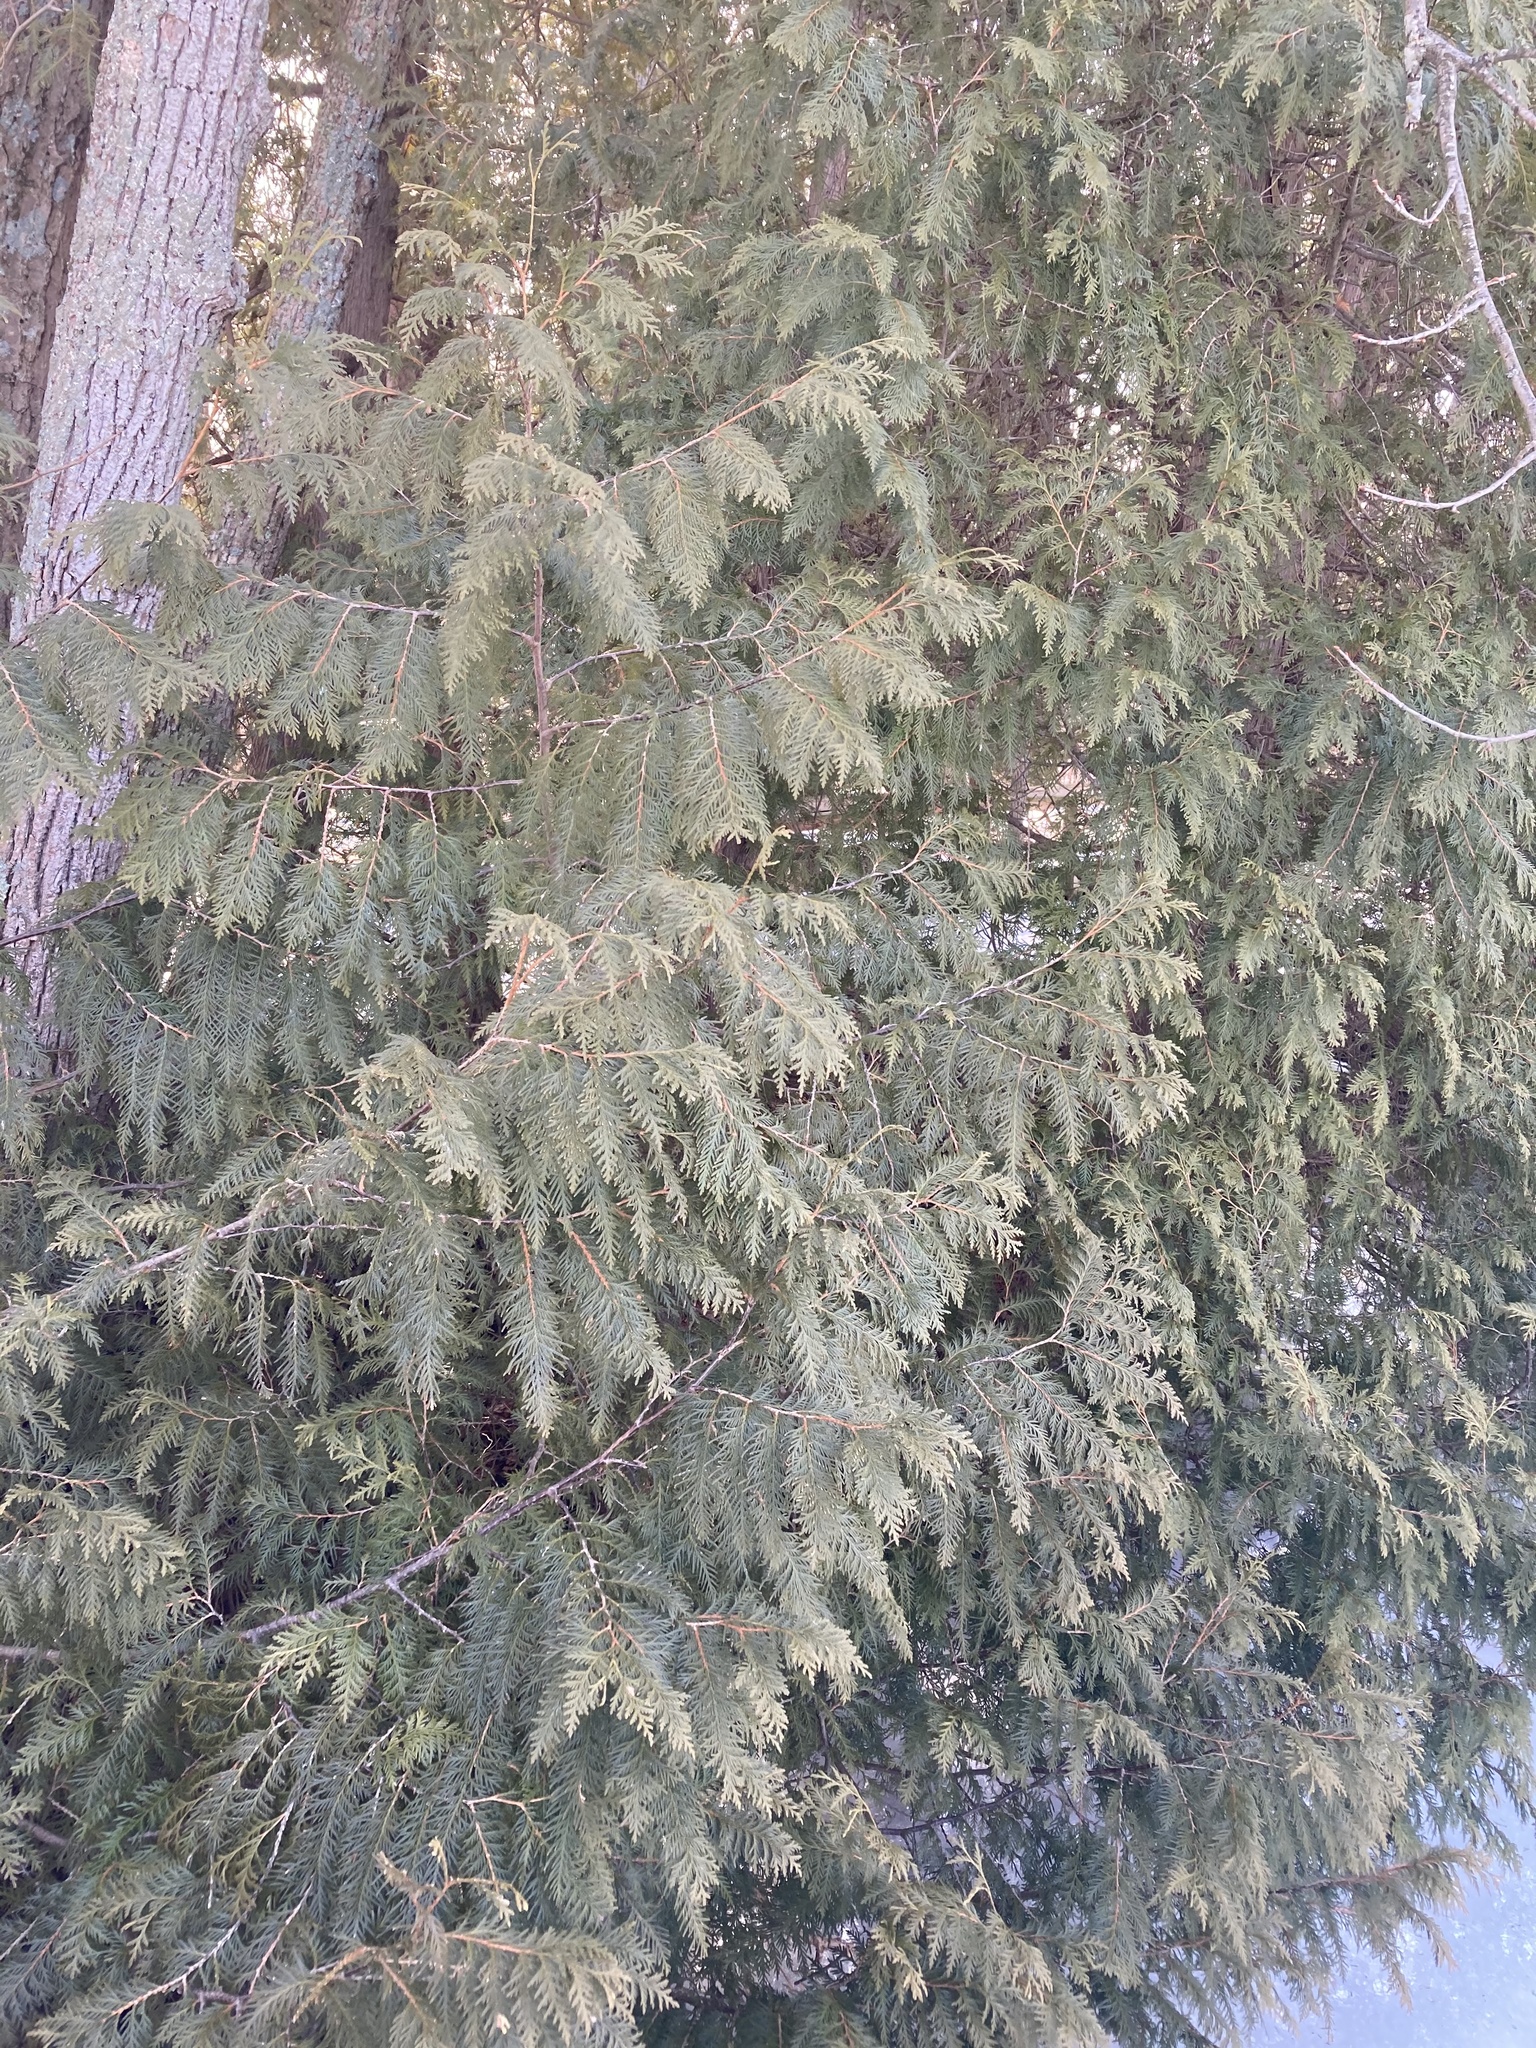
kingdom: Plantae
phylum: Tracheophyta
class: Pinopsida
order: Pinales
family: Cupressaceae
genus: Thuja
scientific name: Thuja occidentalis
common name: Northern white-cedar
